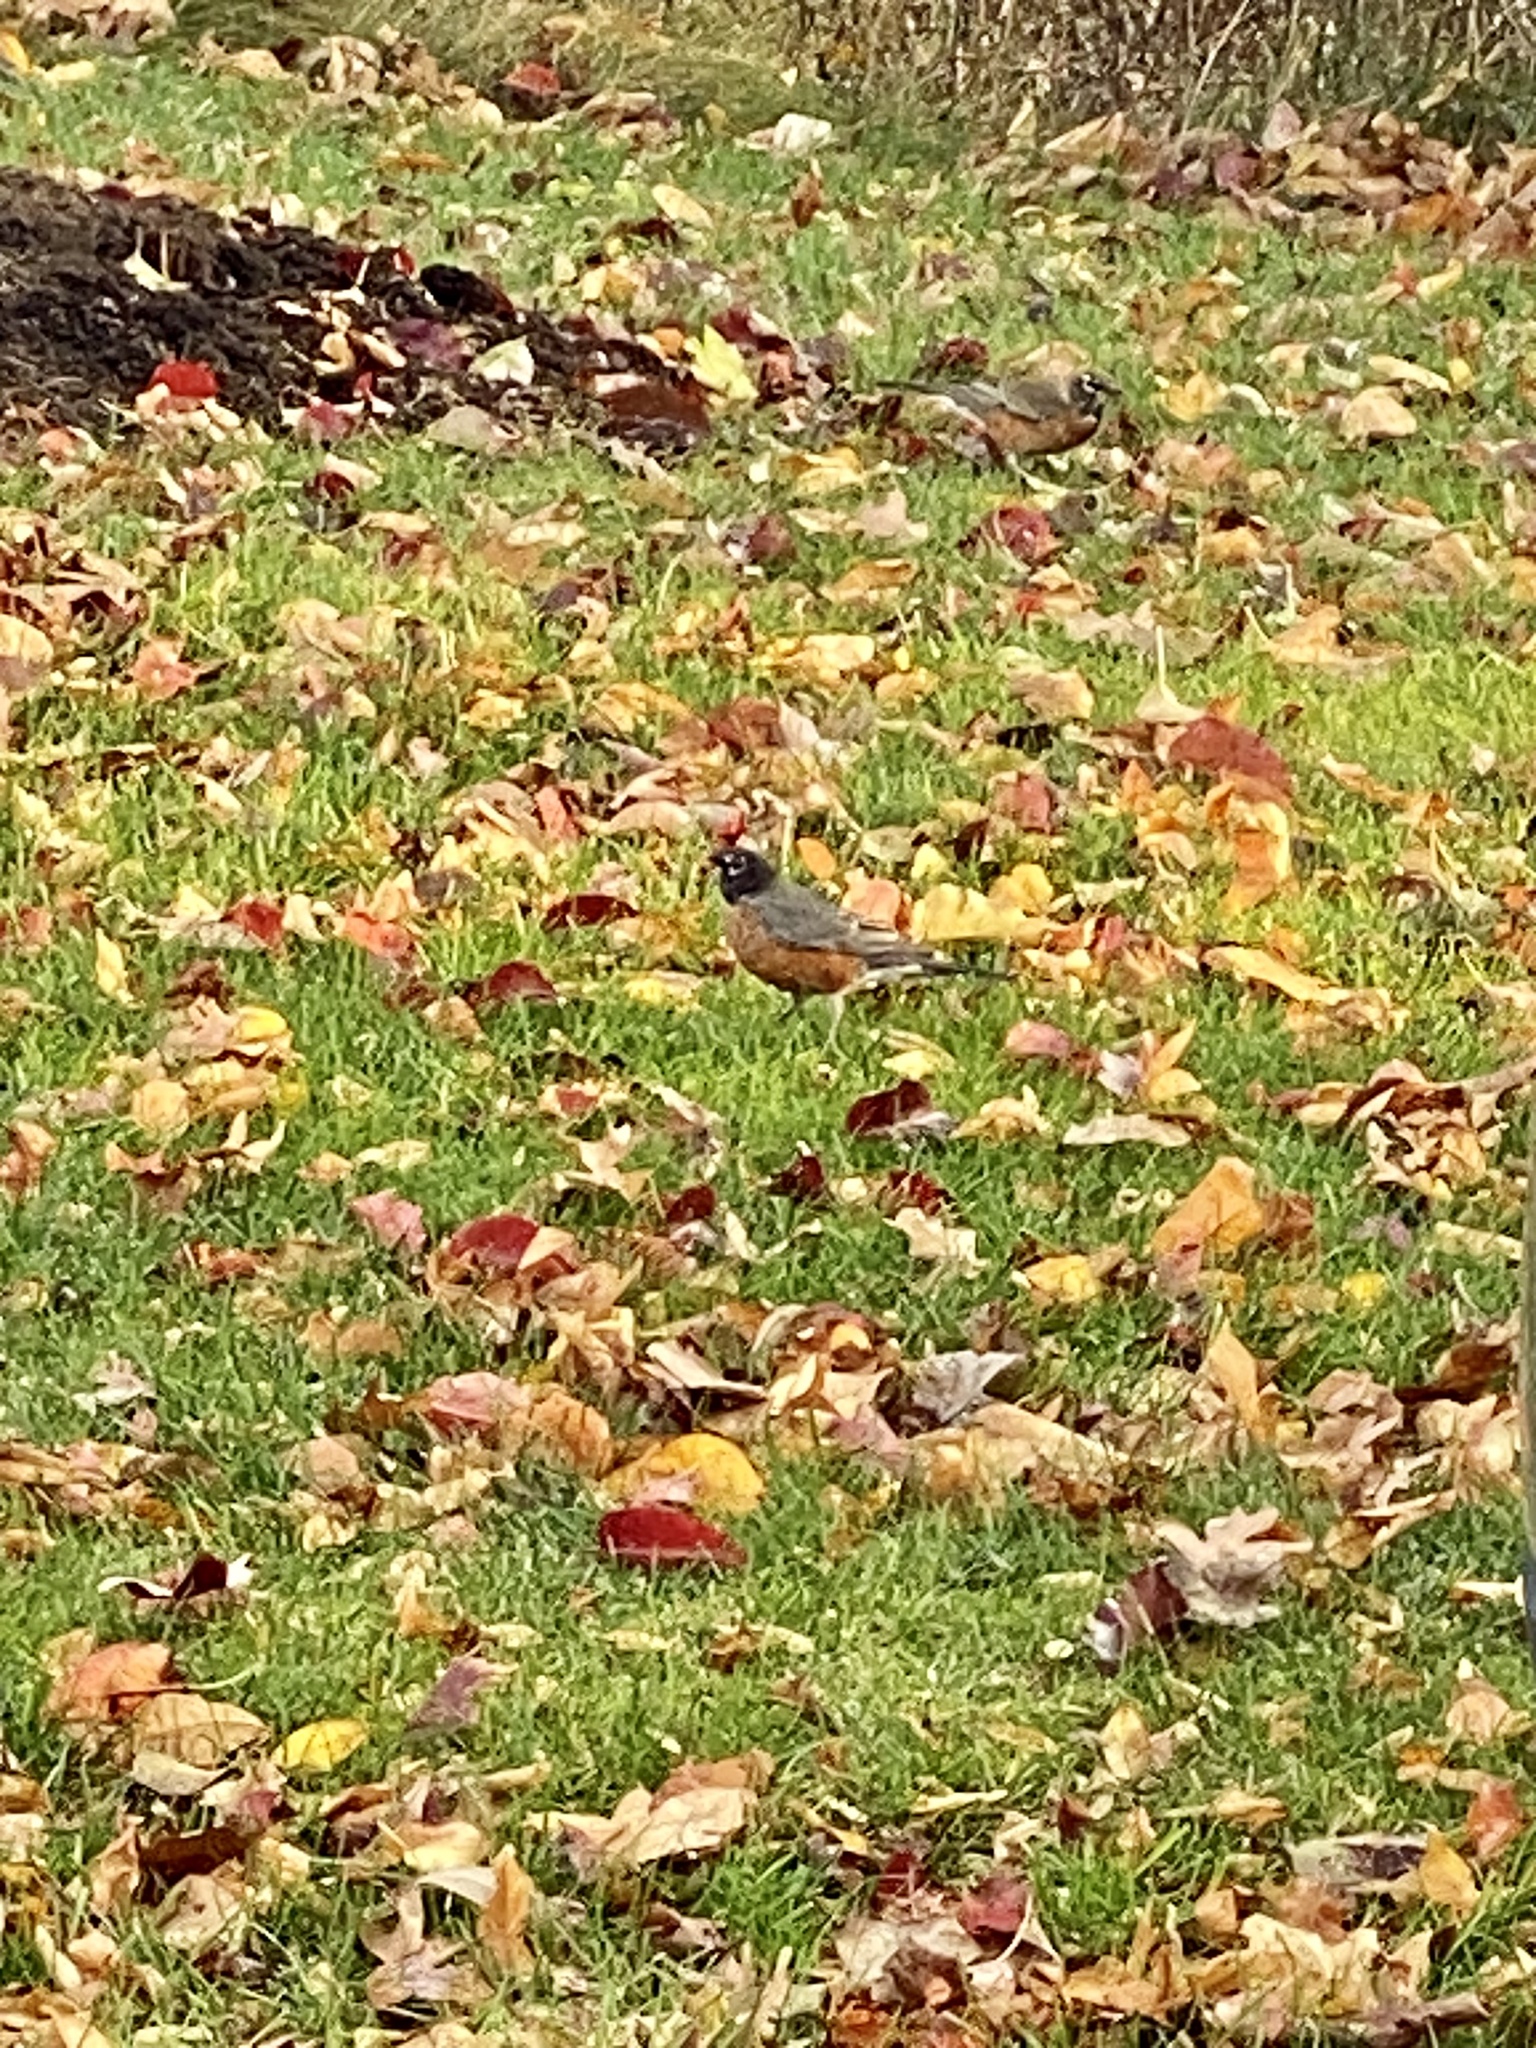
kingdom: Animalia
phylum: Chordata
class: Aves
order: Passeriformes
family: Turdidae
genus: Turdus
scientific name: Turdus migratorius
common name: American robin
